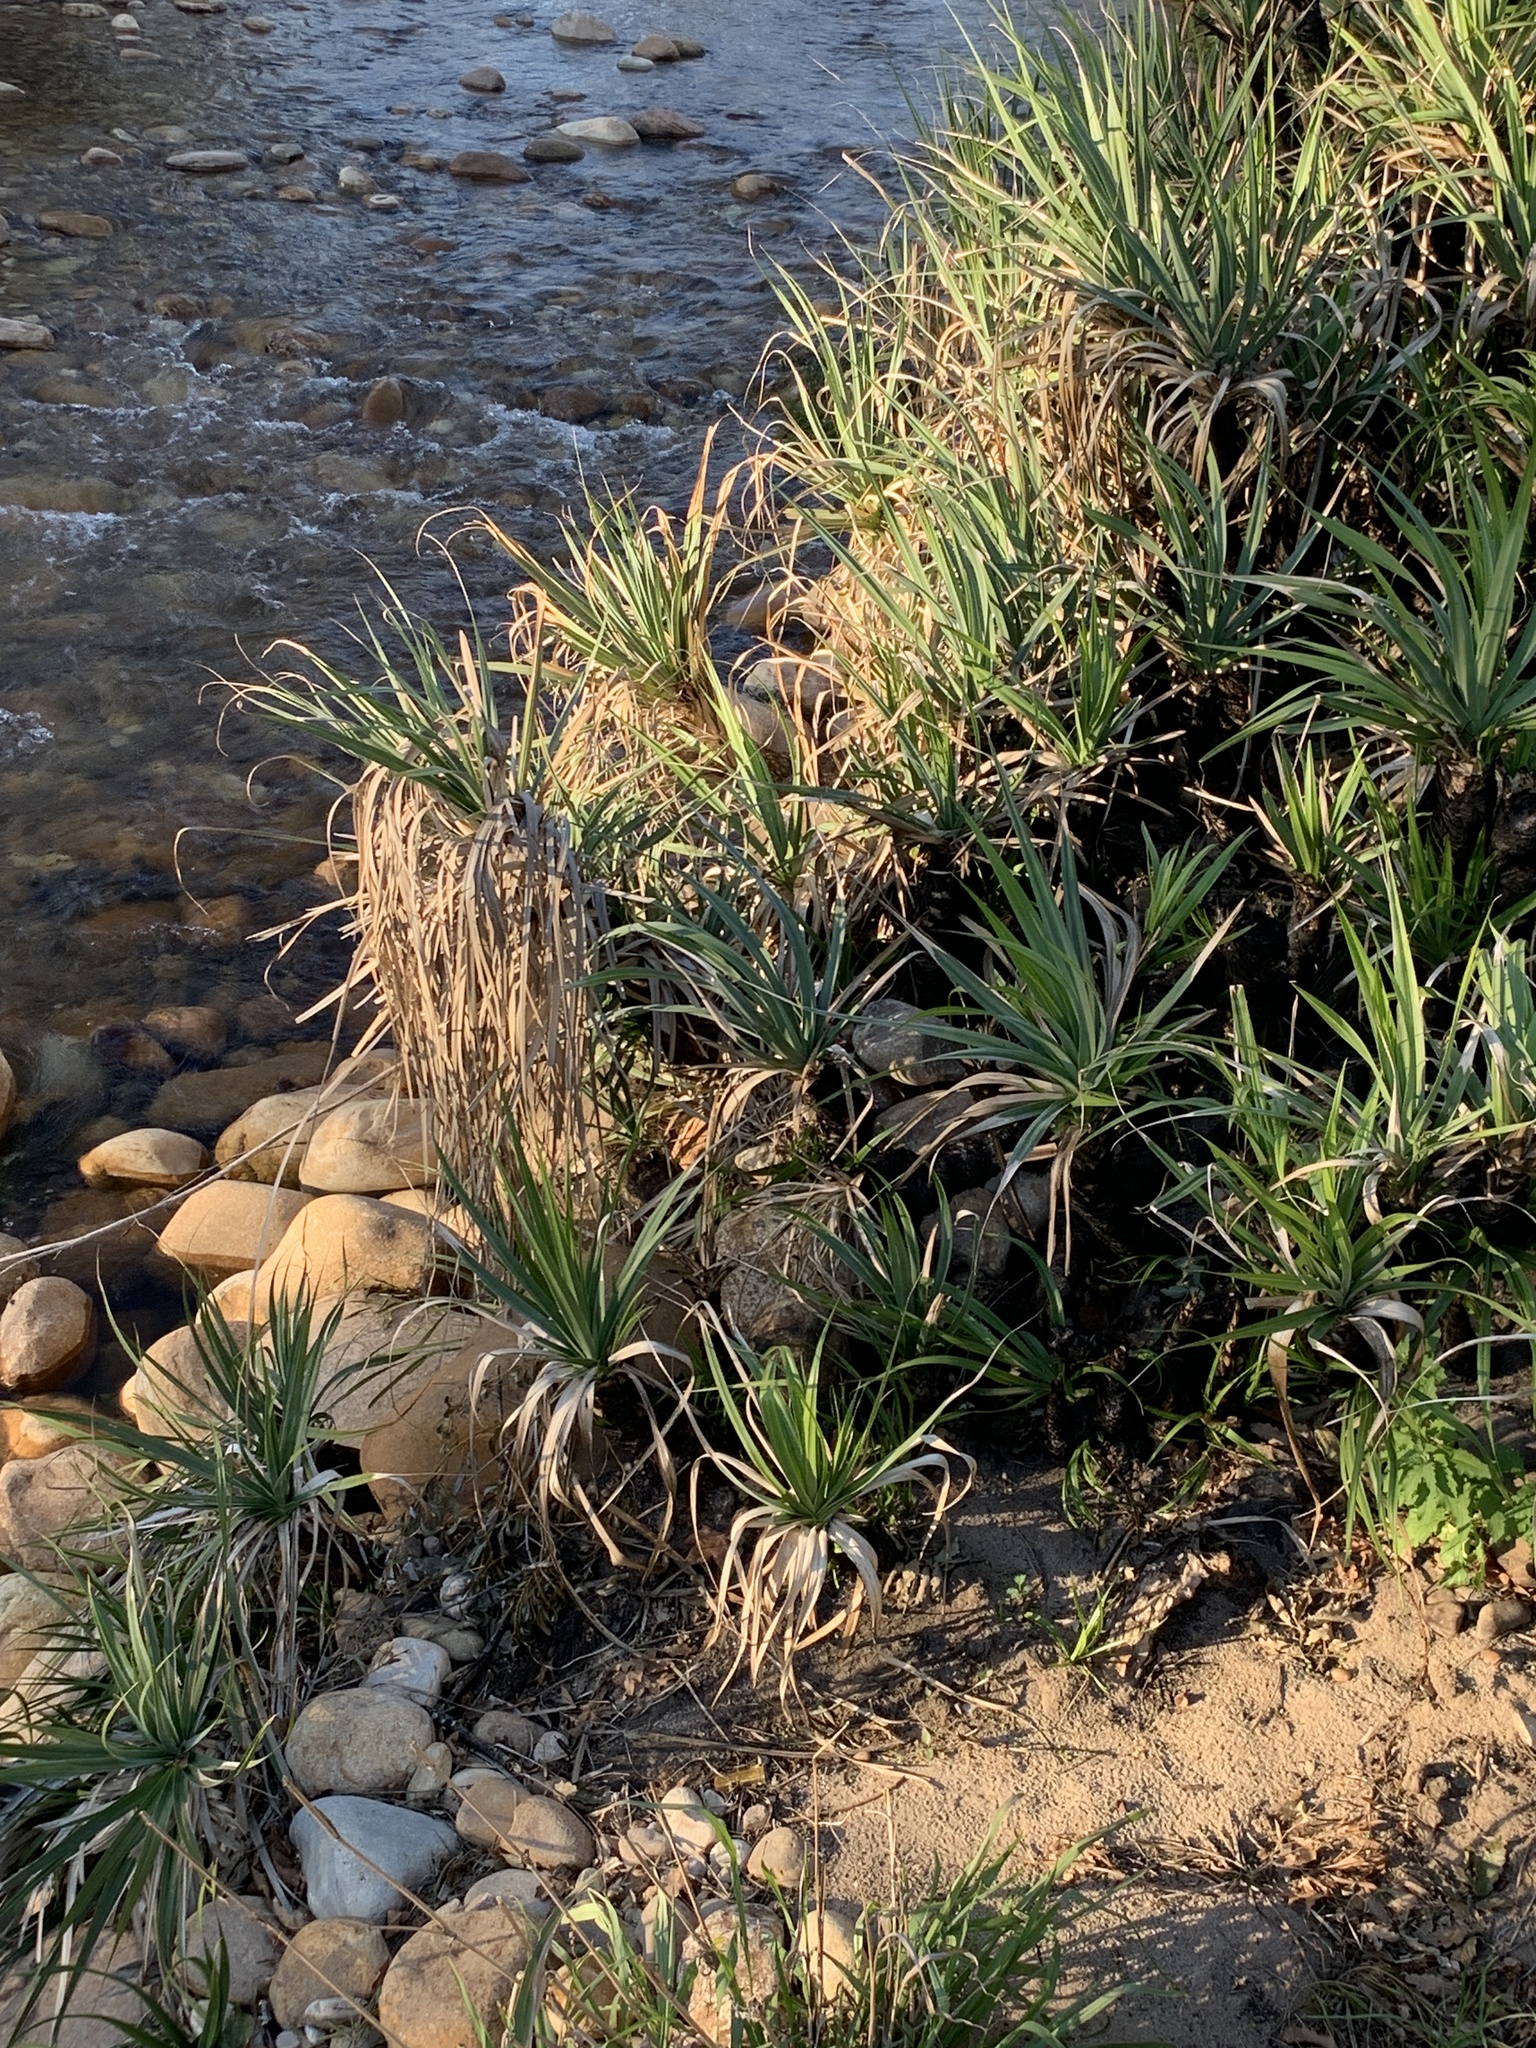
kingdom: Plantae
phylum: Tracheophyta
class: Liliopsida
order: Poales
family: Thurniaceae
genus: Prionium
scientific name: Prionium serratum
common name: Palmiet
